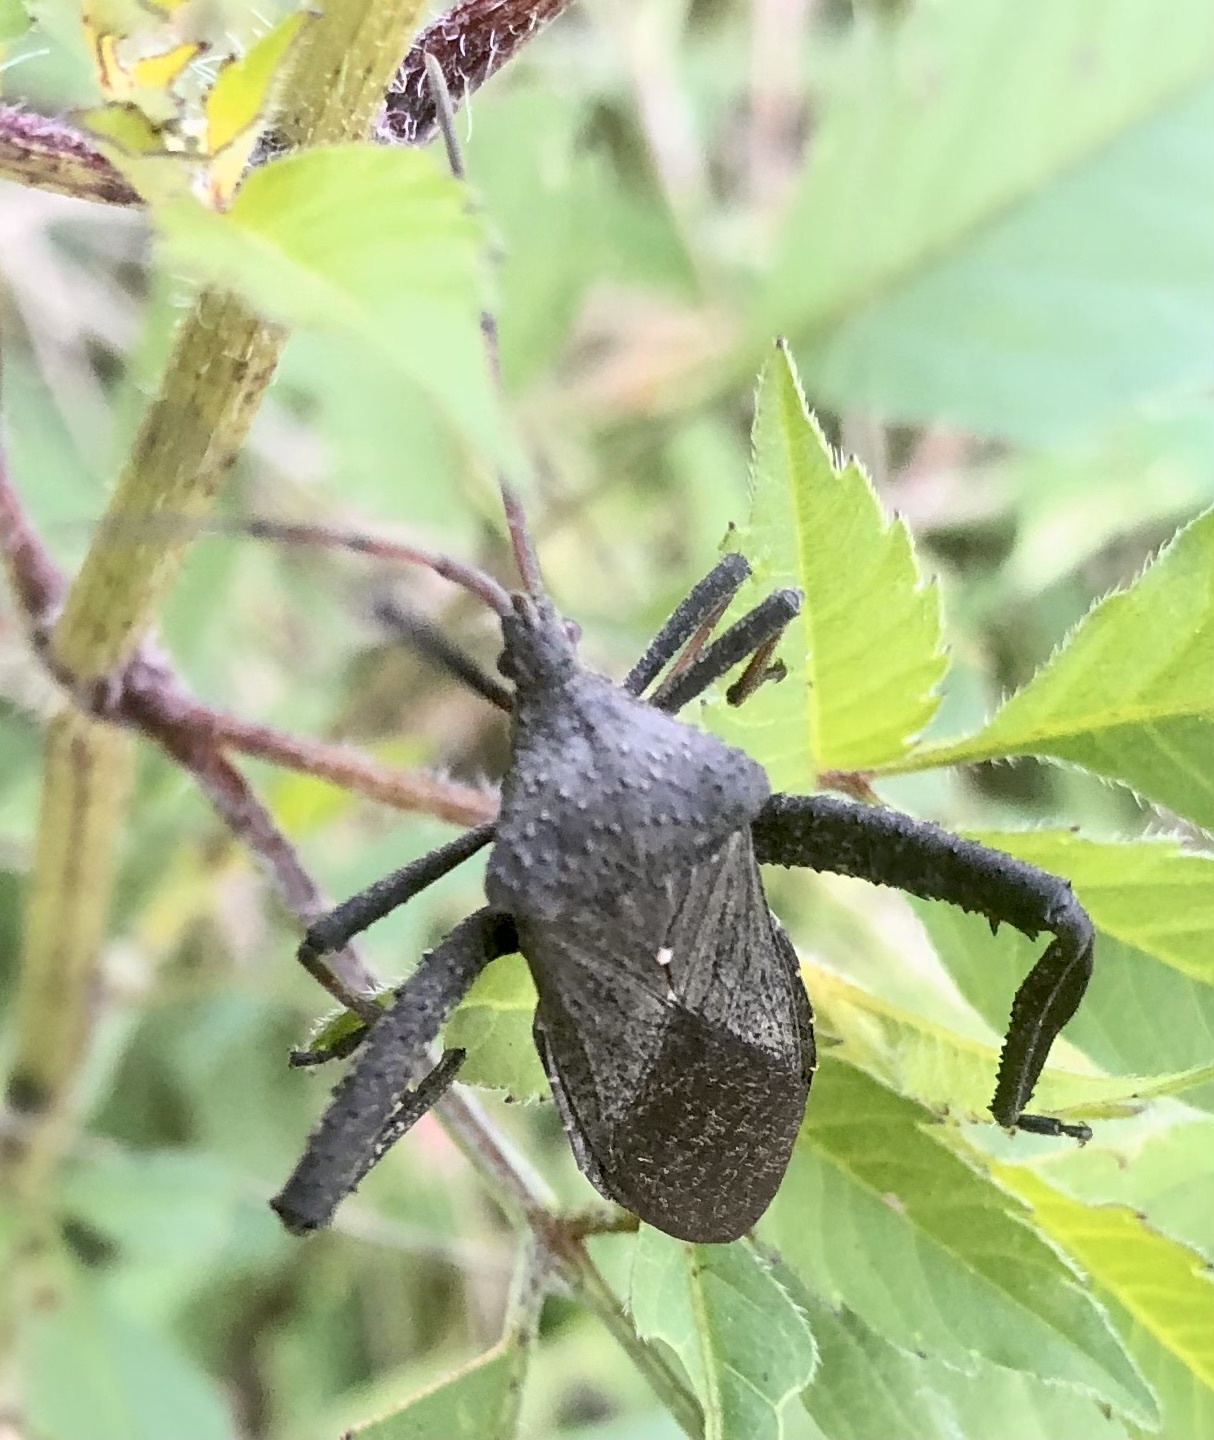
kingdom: Animalia
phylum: Arthropoda
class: Insecta
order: Hemiptera
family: Coreidae
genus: Acanthocephala
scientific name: Acanthocephala femorata
